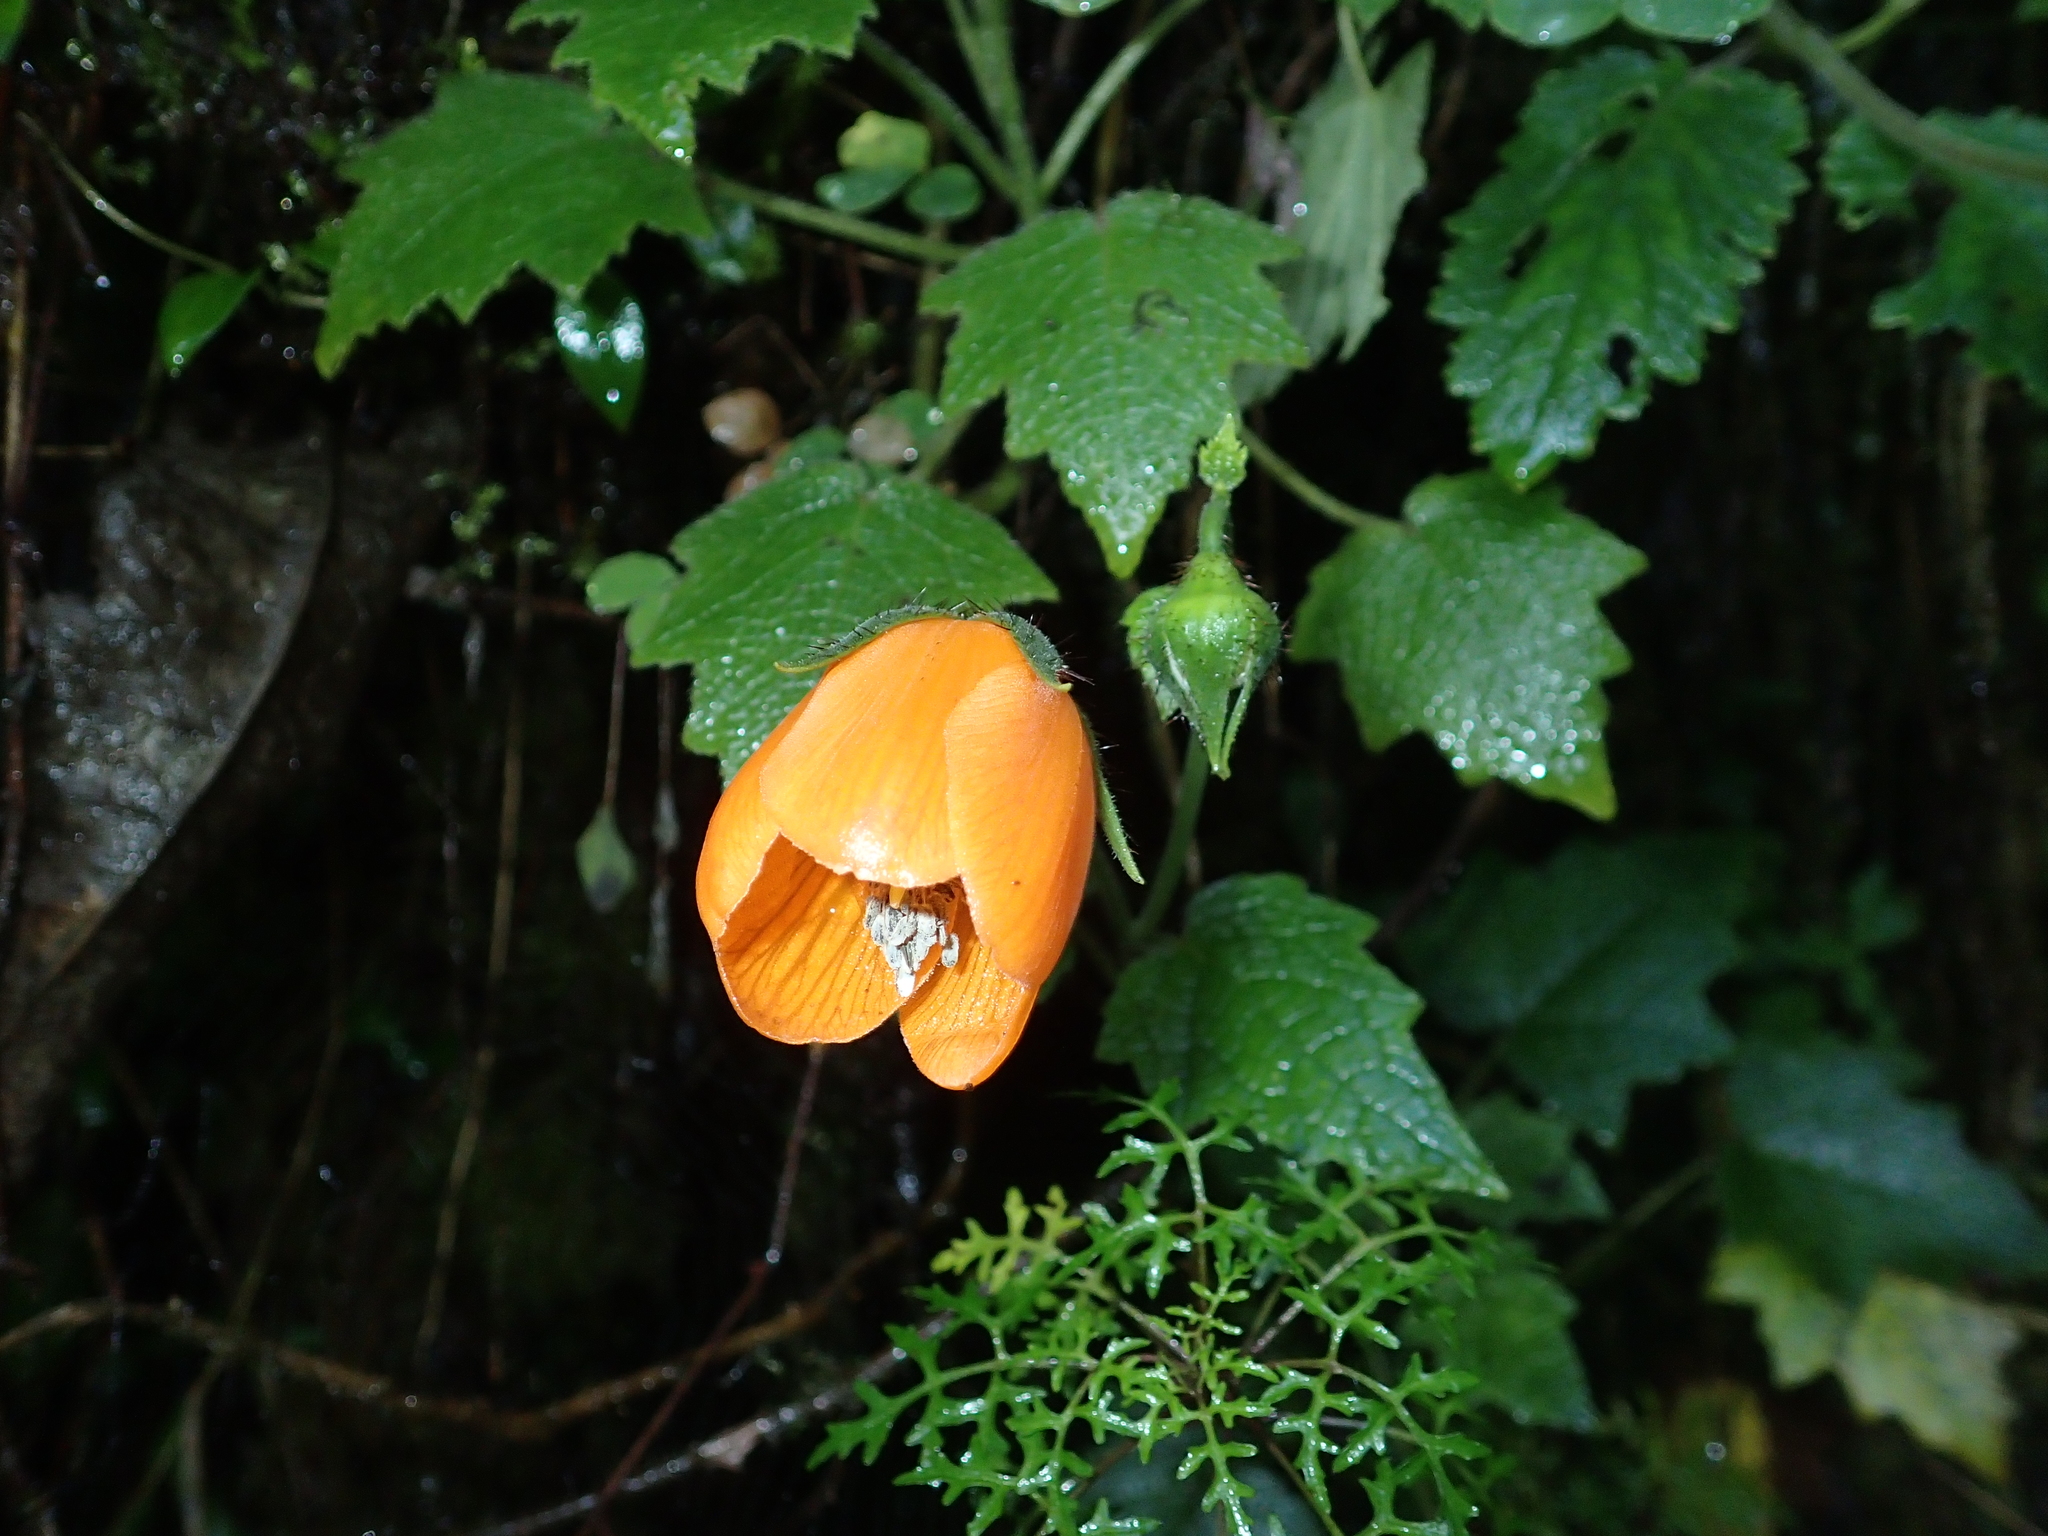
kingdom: Plantae
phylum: Tracheophyta
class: Magnoliopsida
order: Cornales
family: Loasaceae
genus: Nasa
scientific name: Nasa grandiflora
